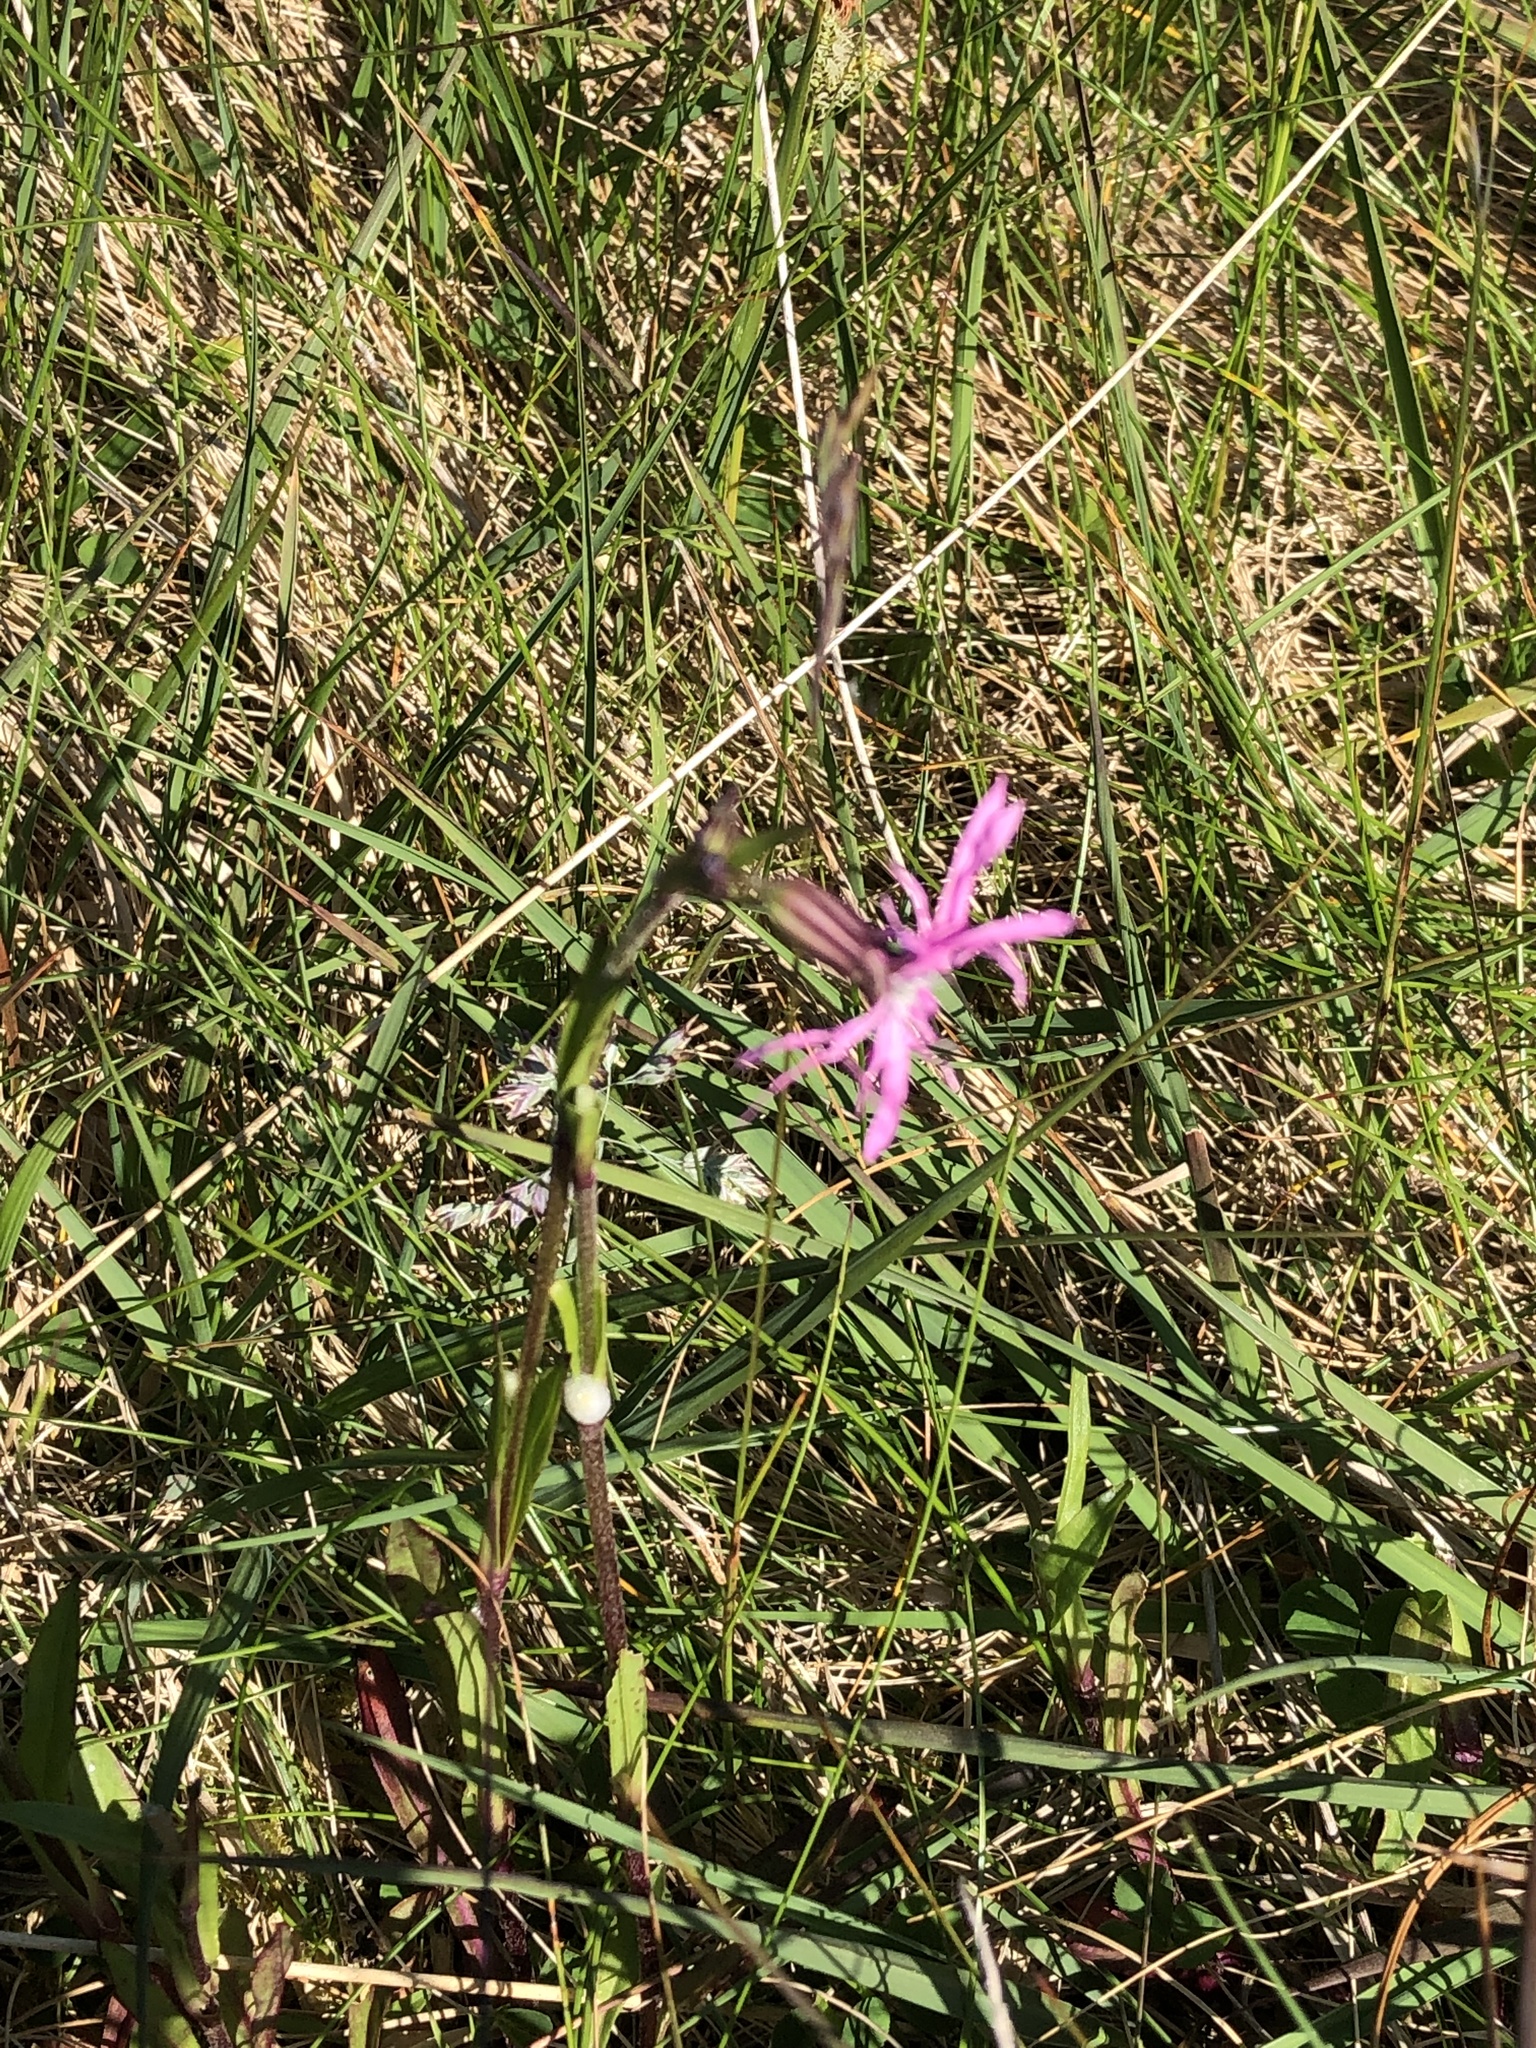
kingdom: Plantae
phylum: Tracheophyta
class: Magnoliopsida
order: Caryophyllales
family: Caryophyllaceae
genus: Silene
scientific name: Silene flos-cuculi
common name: Ragged-robin
